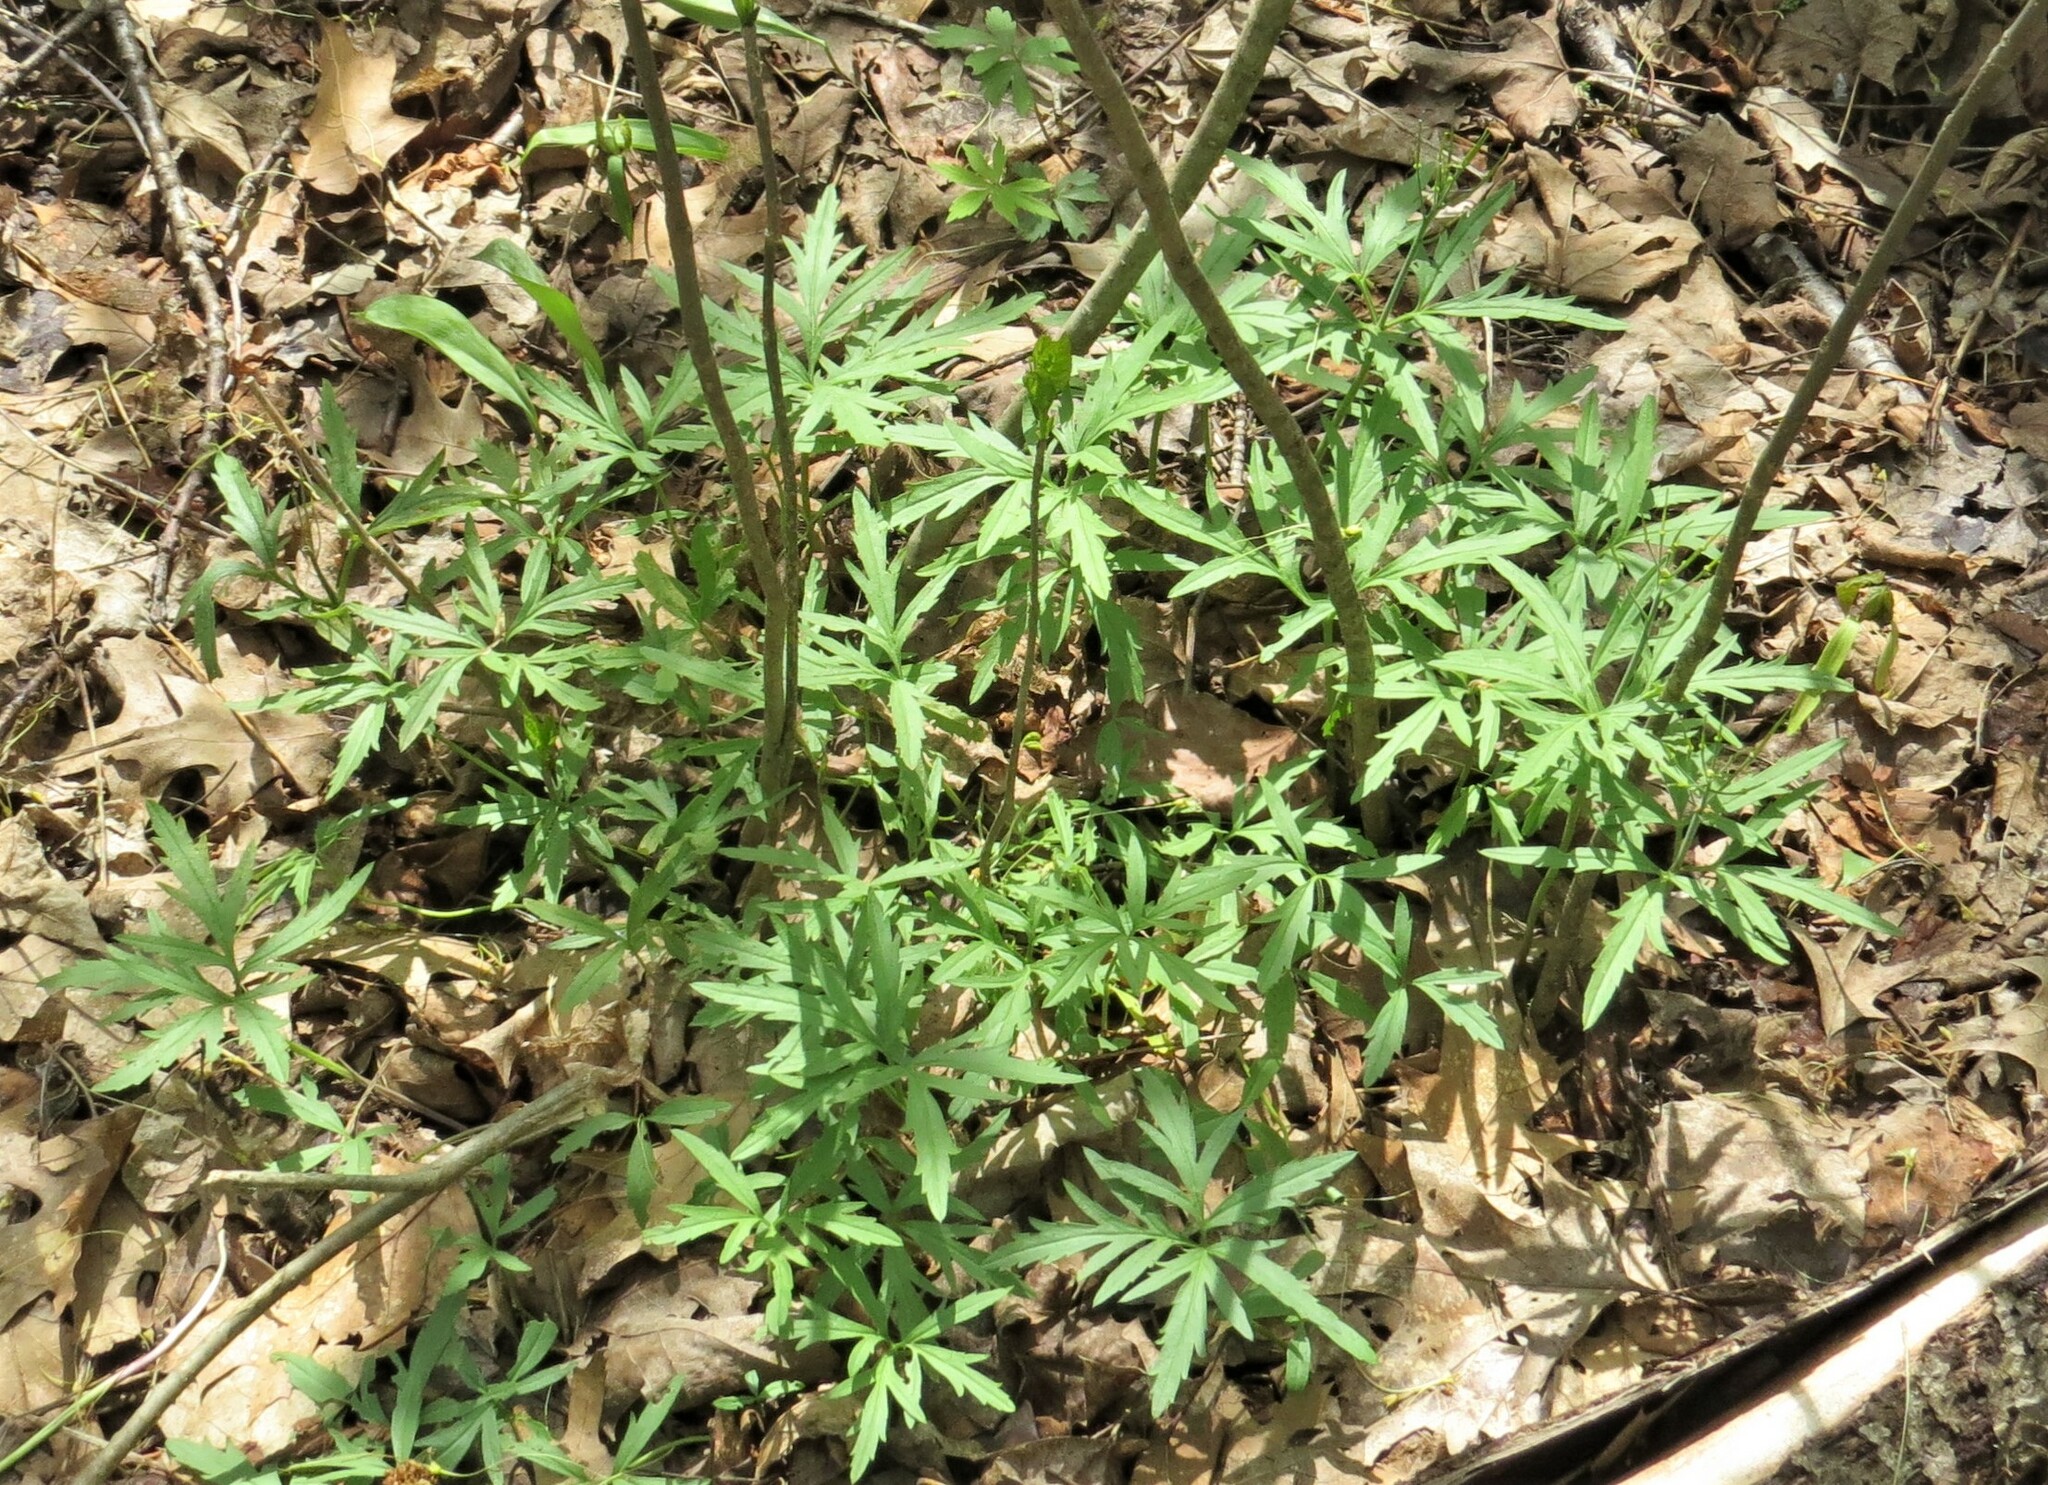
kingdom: Plantae
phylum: Tracheophyta
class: Magnoliopsida
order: Brassicales
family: Brassicaceae
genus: Cardamine
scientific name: Cardamine concatenata
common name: Cut-leaf toothcup
